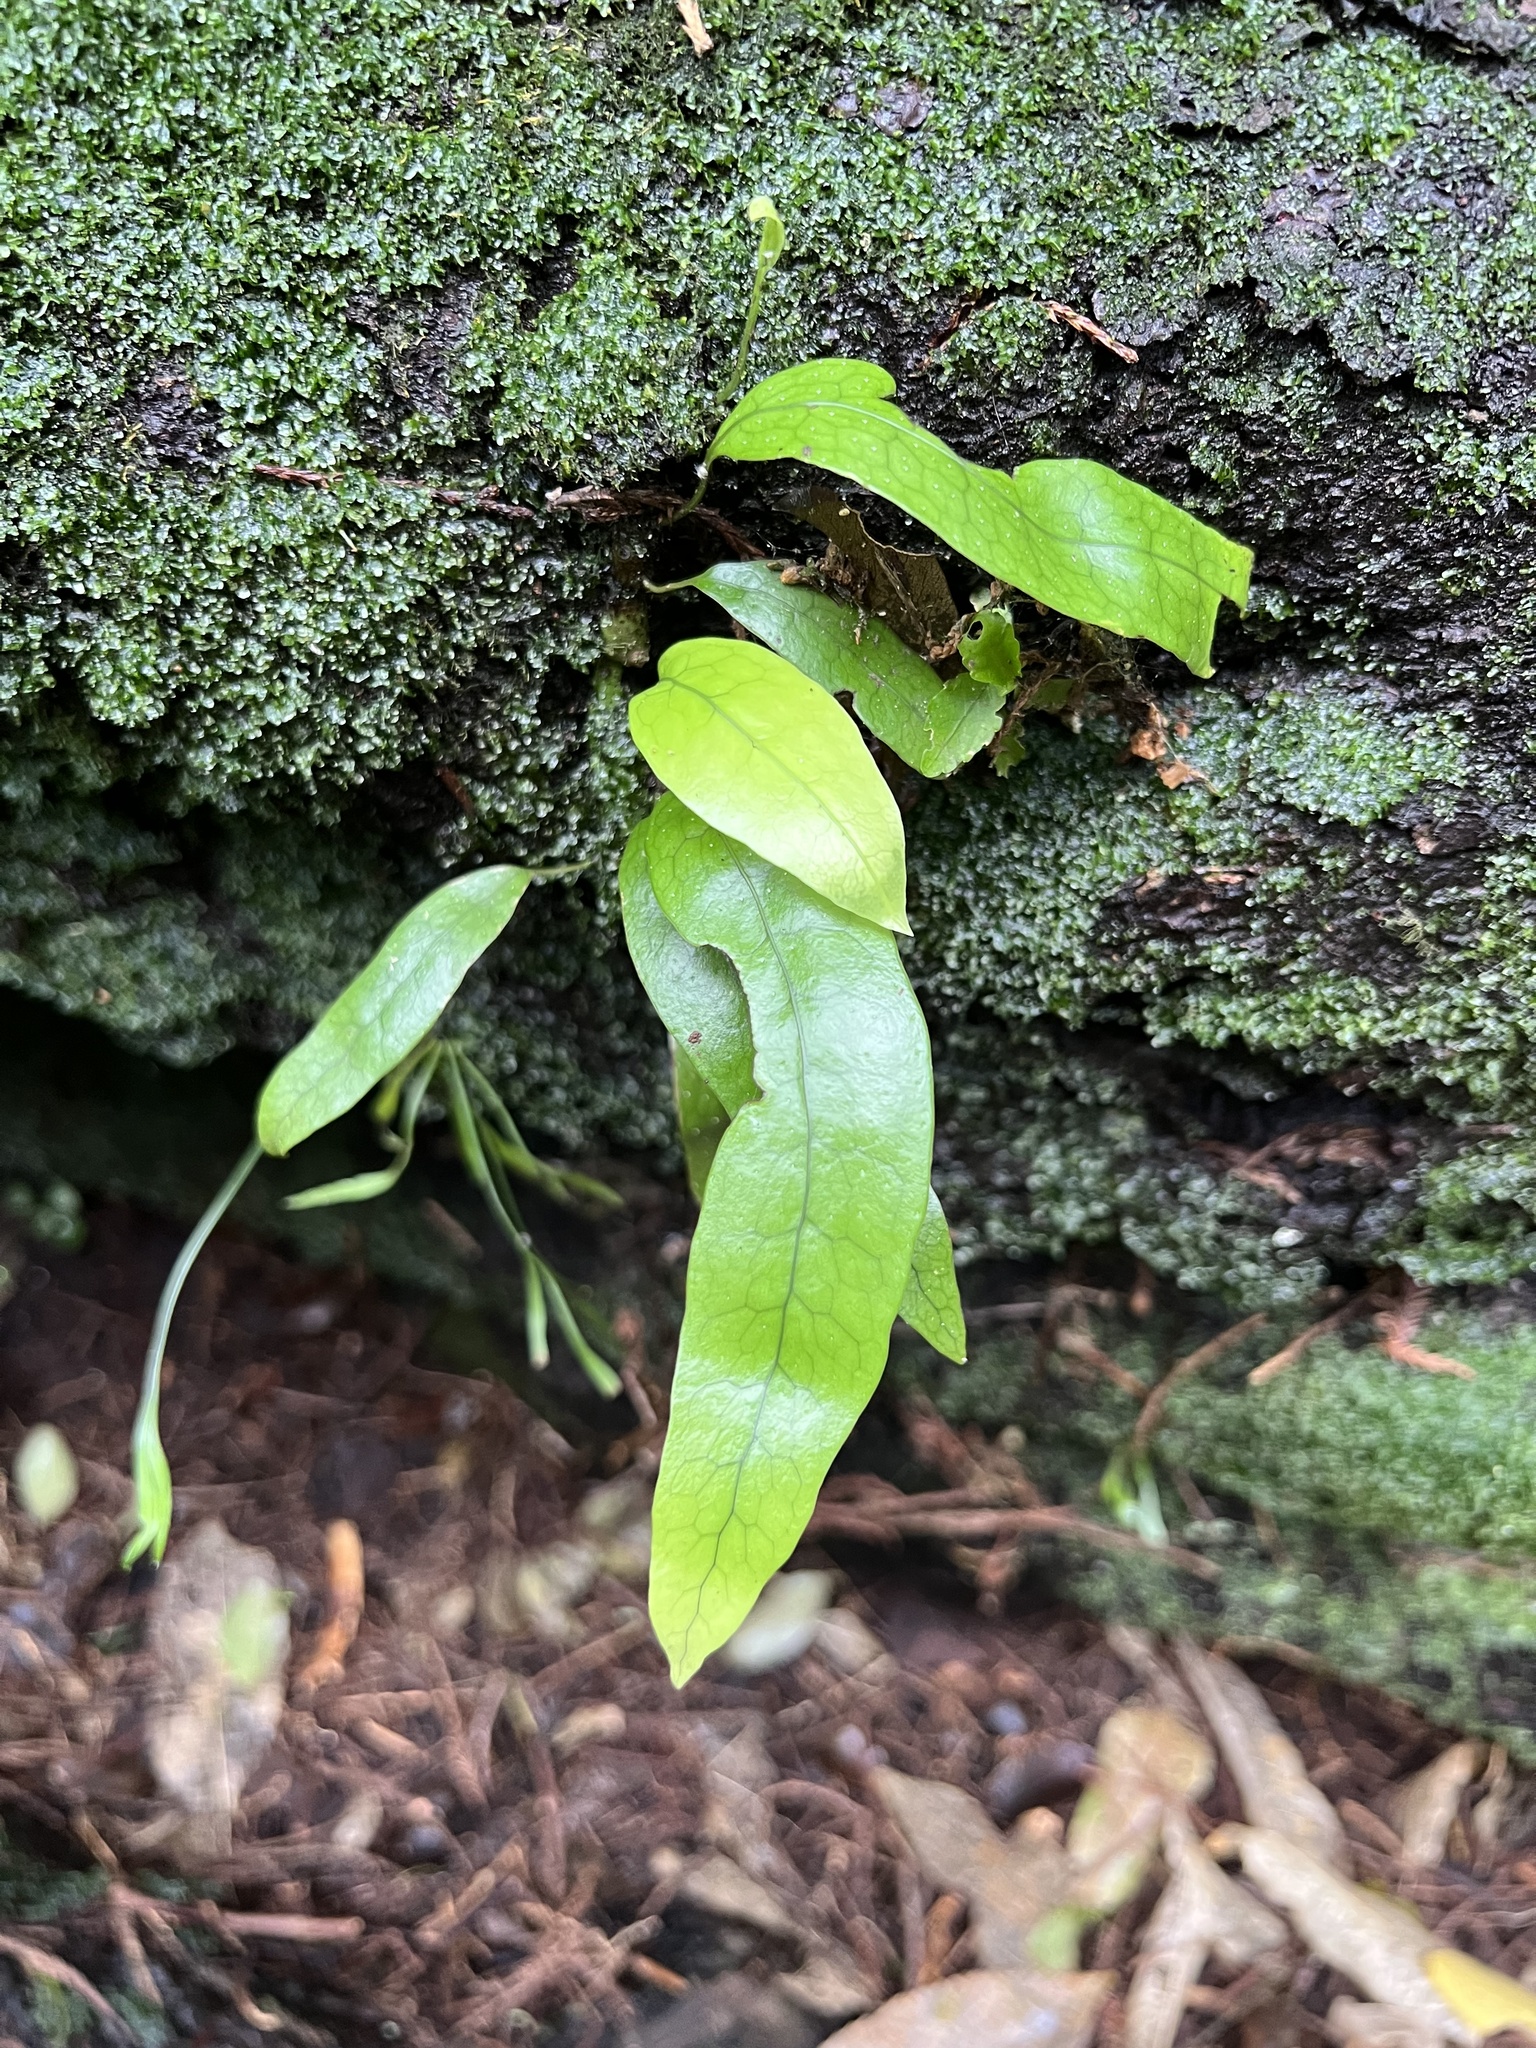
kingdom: Plantae
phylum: Tracheophyta
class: Polypodiopsida
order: Polypodiales
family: Polypodiaceae
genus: Lecanopteris
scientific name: Lecanopteris pustulata
